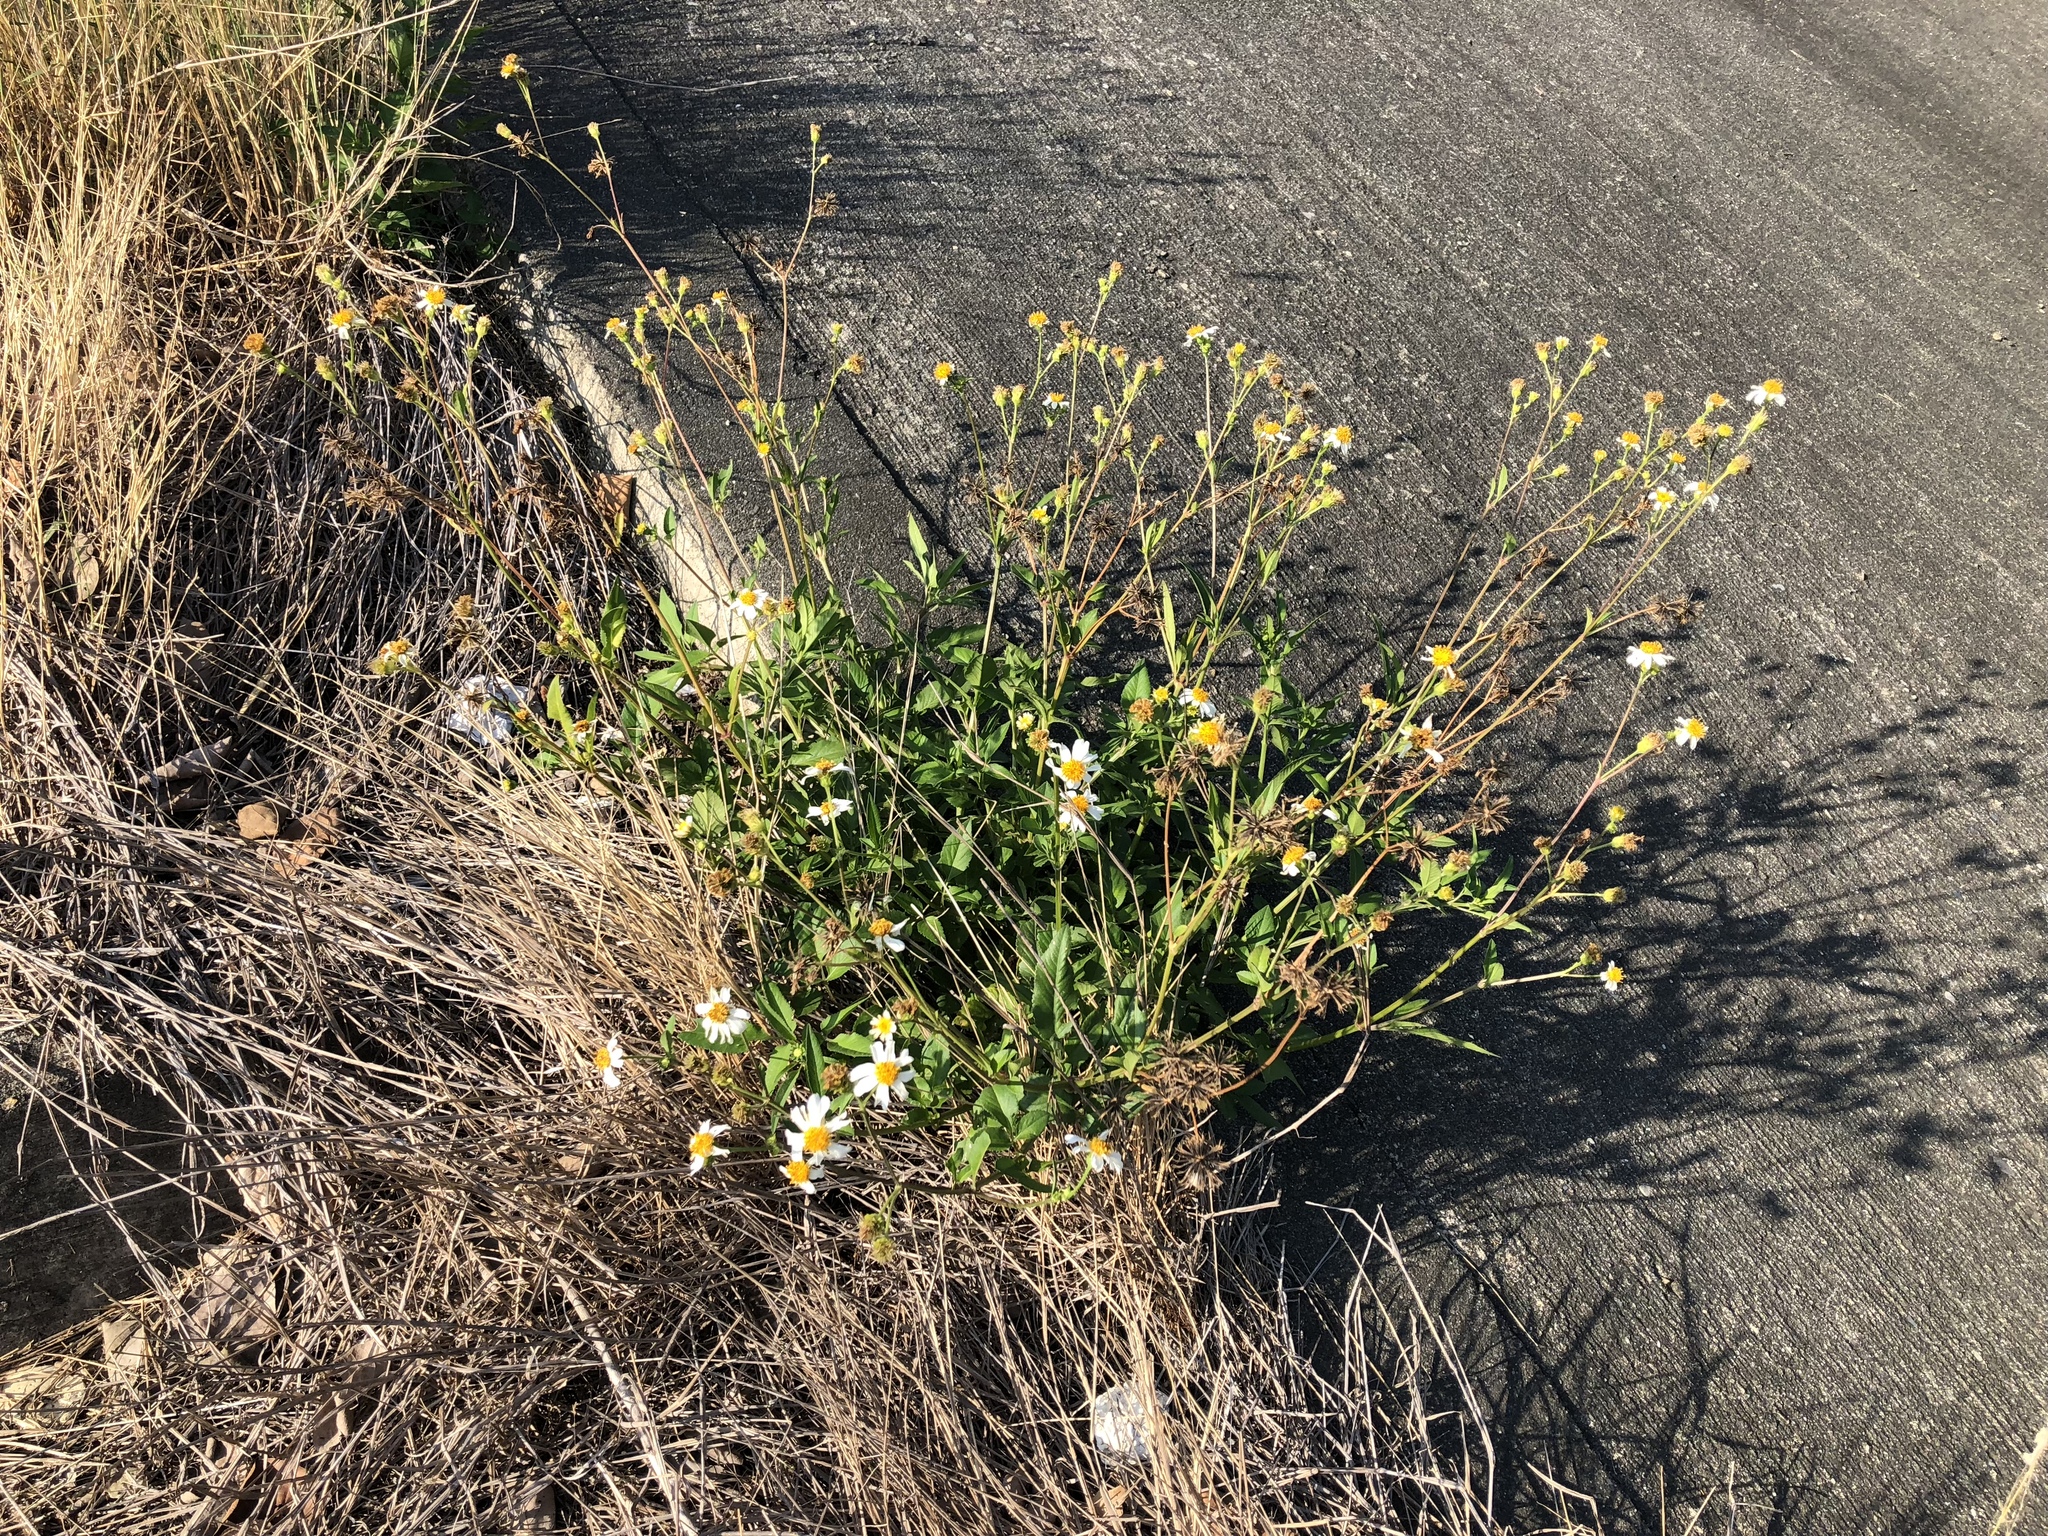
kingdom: Plantae
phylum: Tracheophyta
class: Magnoliopsida
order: Asterales
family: Asteraceae
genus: Bidens
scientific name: Bidens alba
